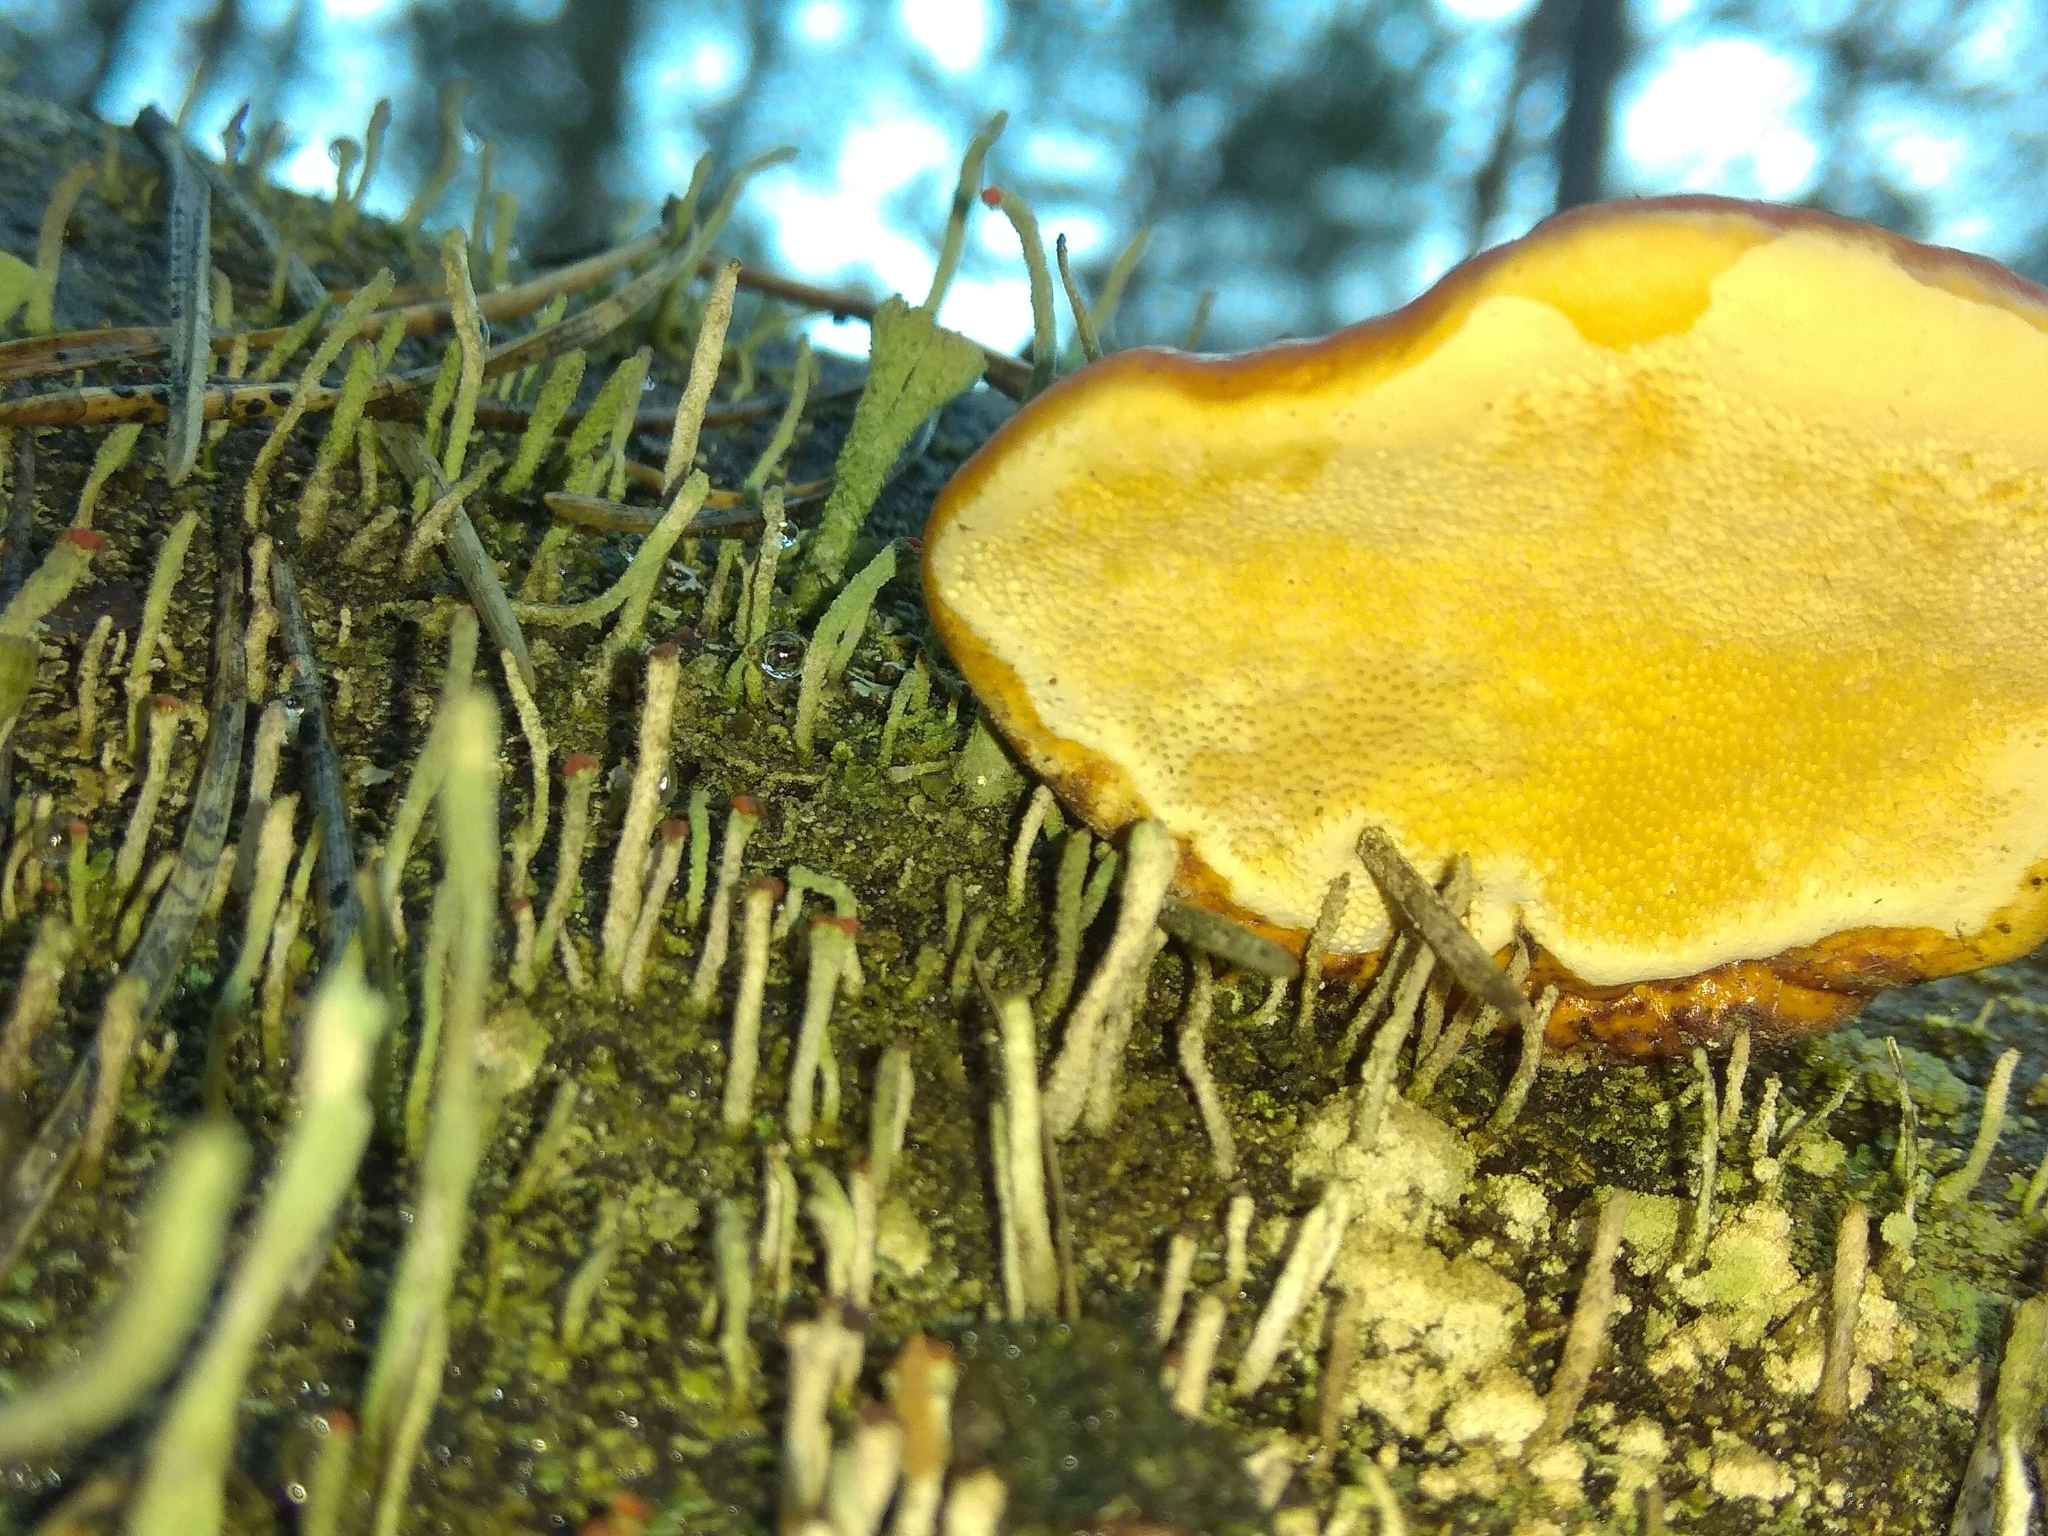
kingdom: Fungi
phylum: Basidiomycota
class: Agaricomycetes
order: Polyporales
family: Fomitopsidaceae
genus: Fomitopsis
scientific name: Fomitopsis pinicola
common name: Red-belted bracket
